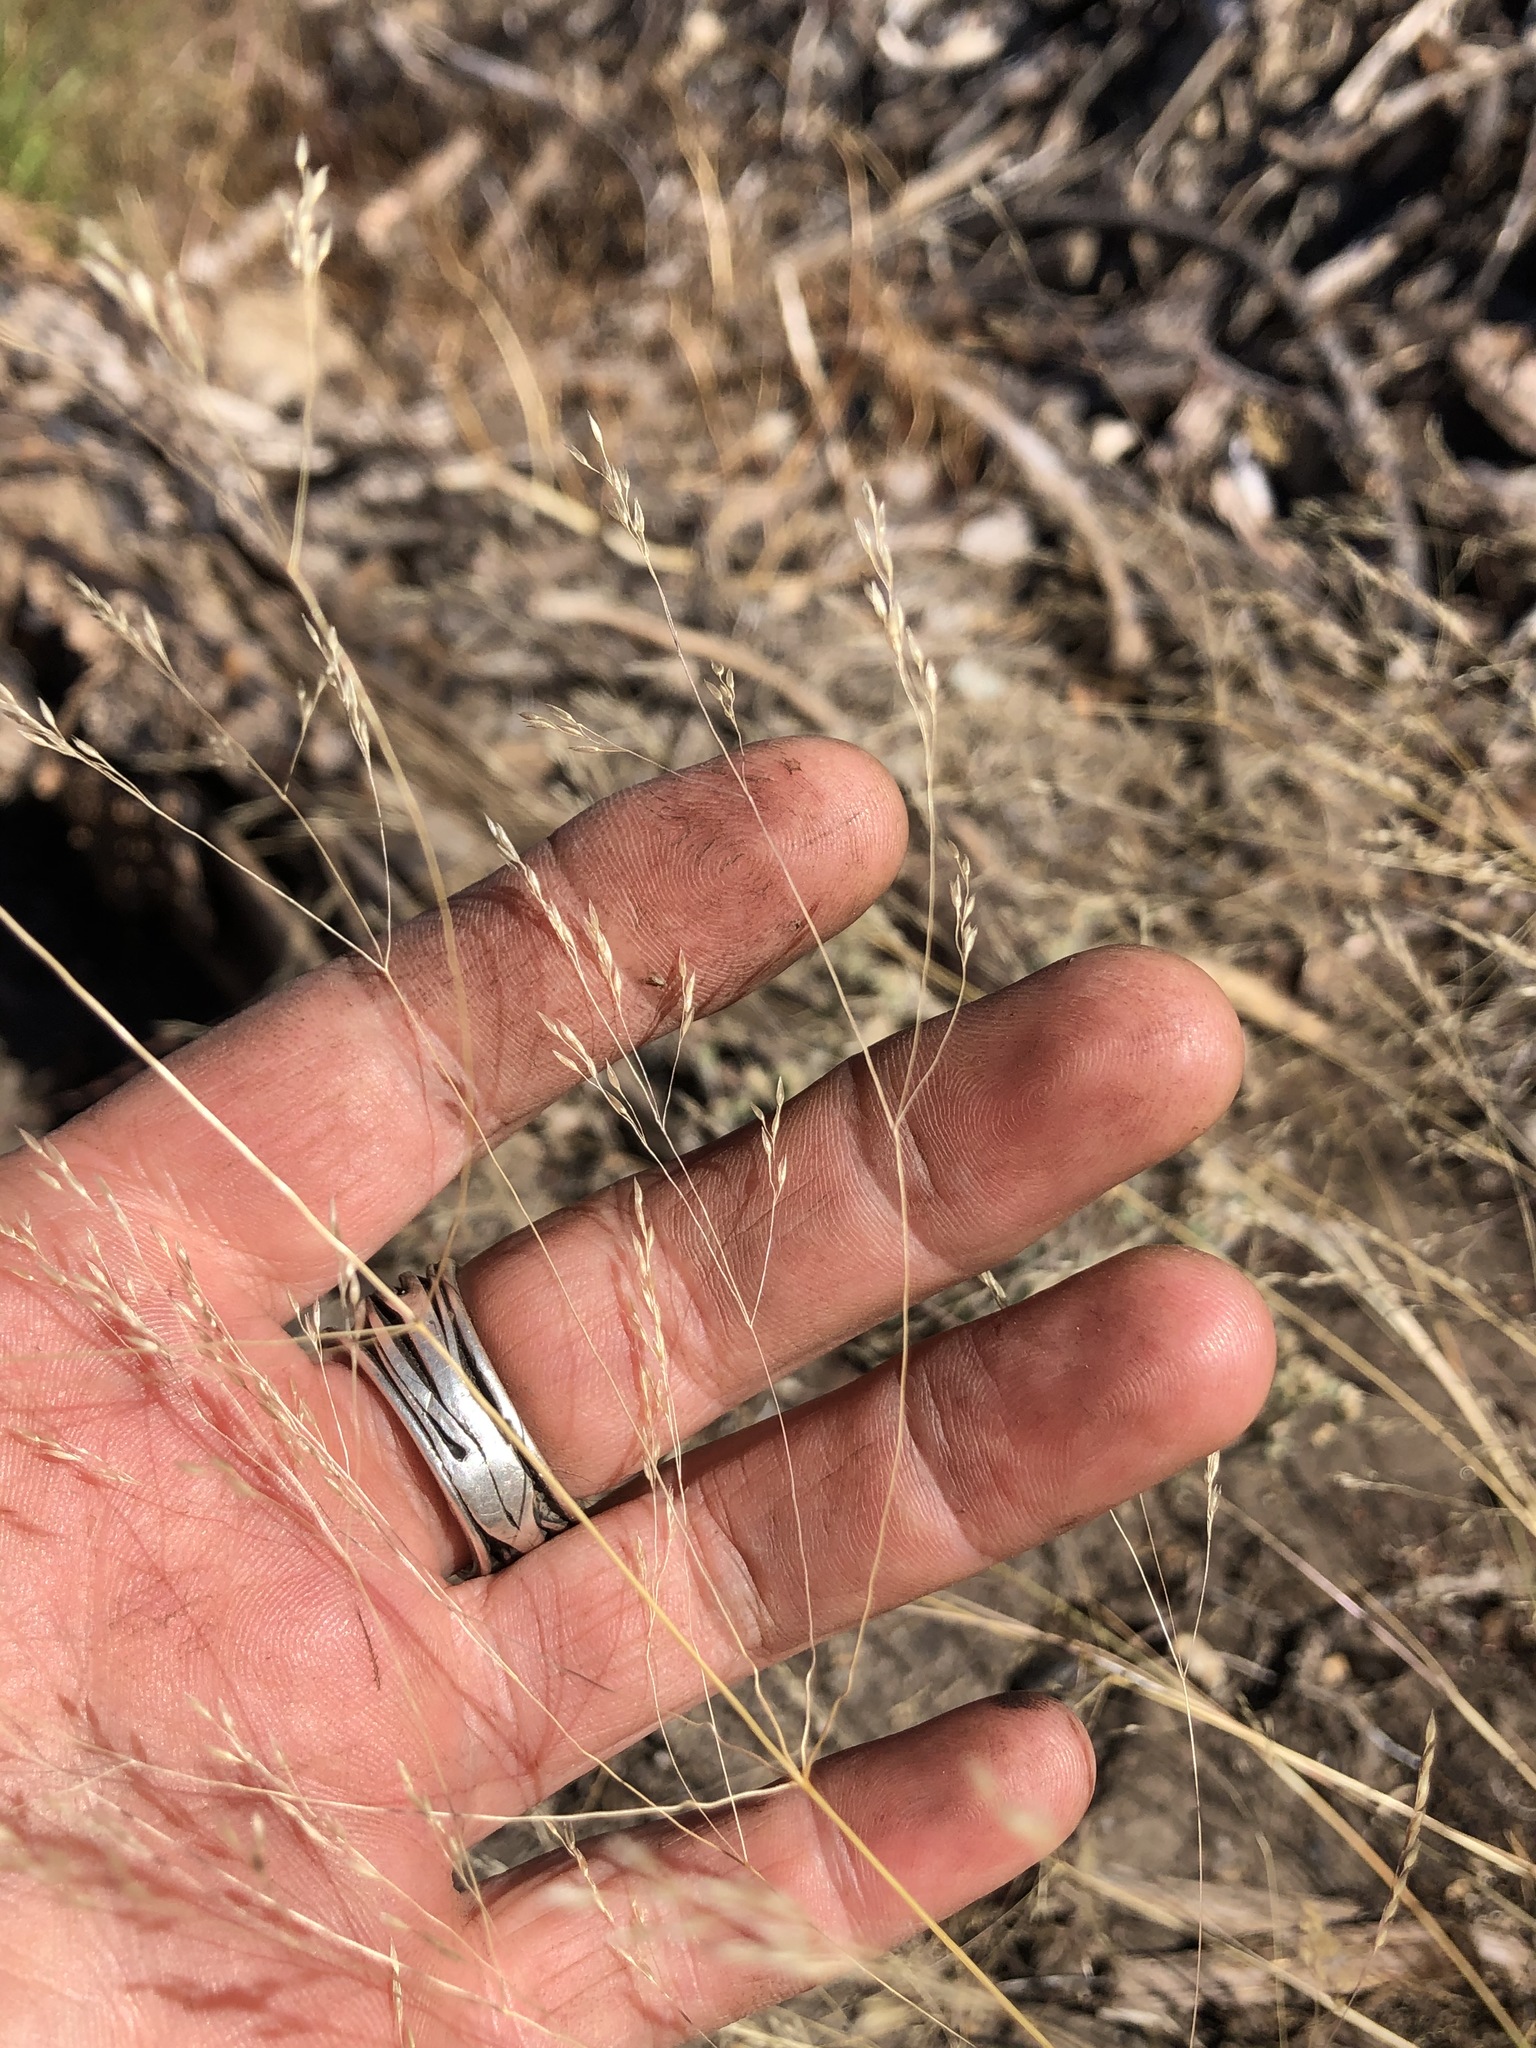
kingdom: Plantae
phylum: Tracheophyta
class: Liliopsida
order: Poales
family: Poaceae
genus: Panicum
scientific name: Panicum virgatum
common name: Switchgrass
